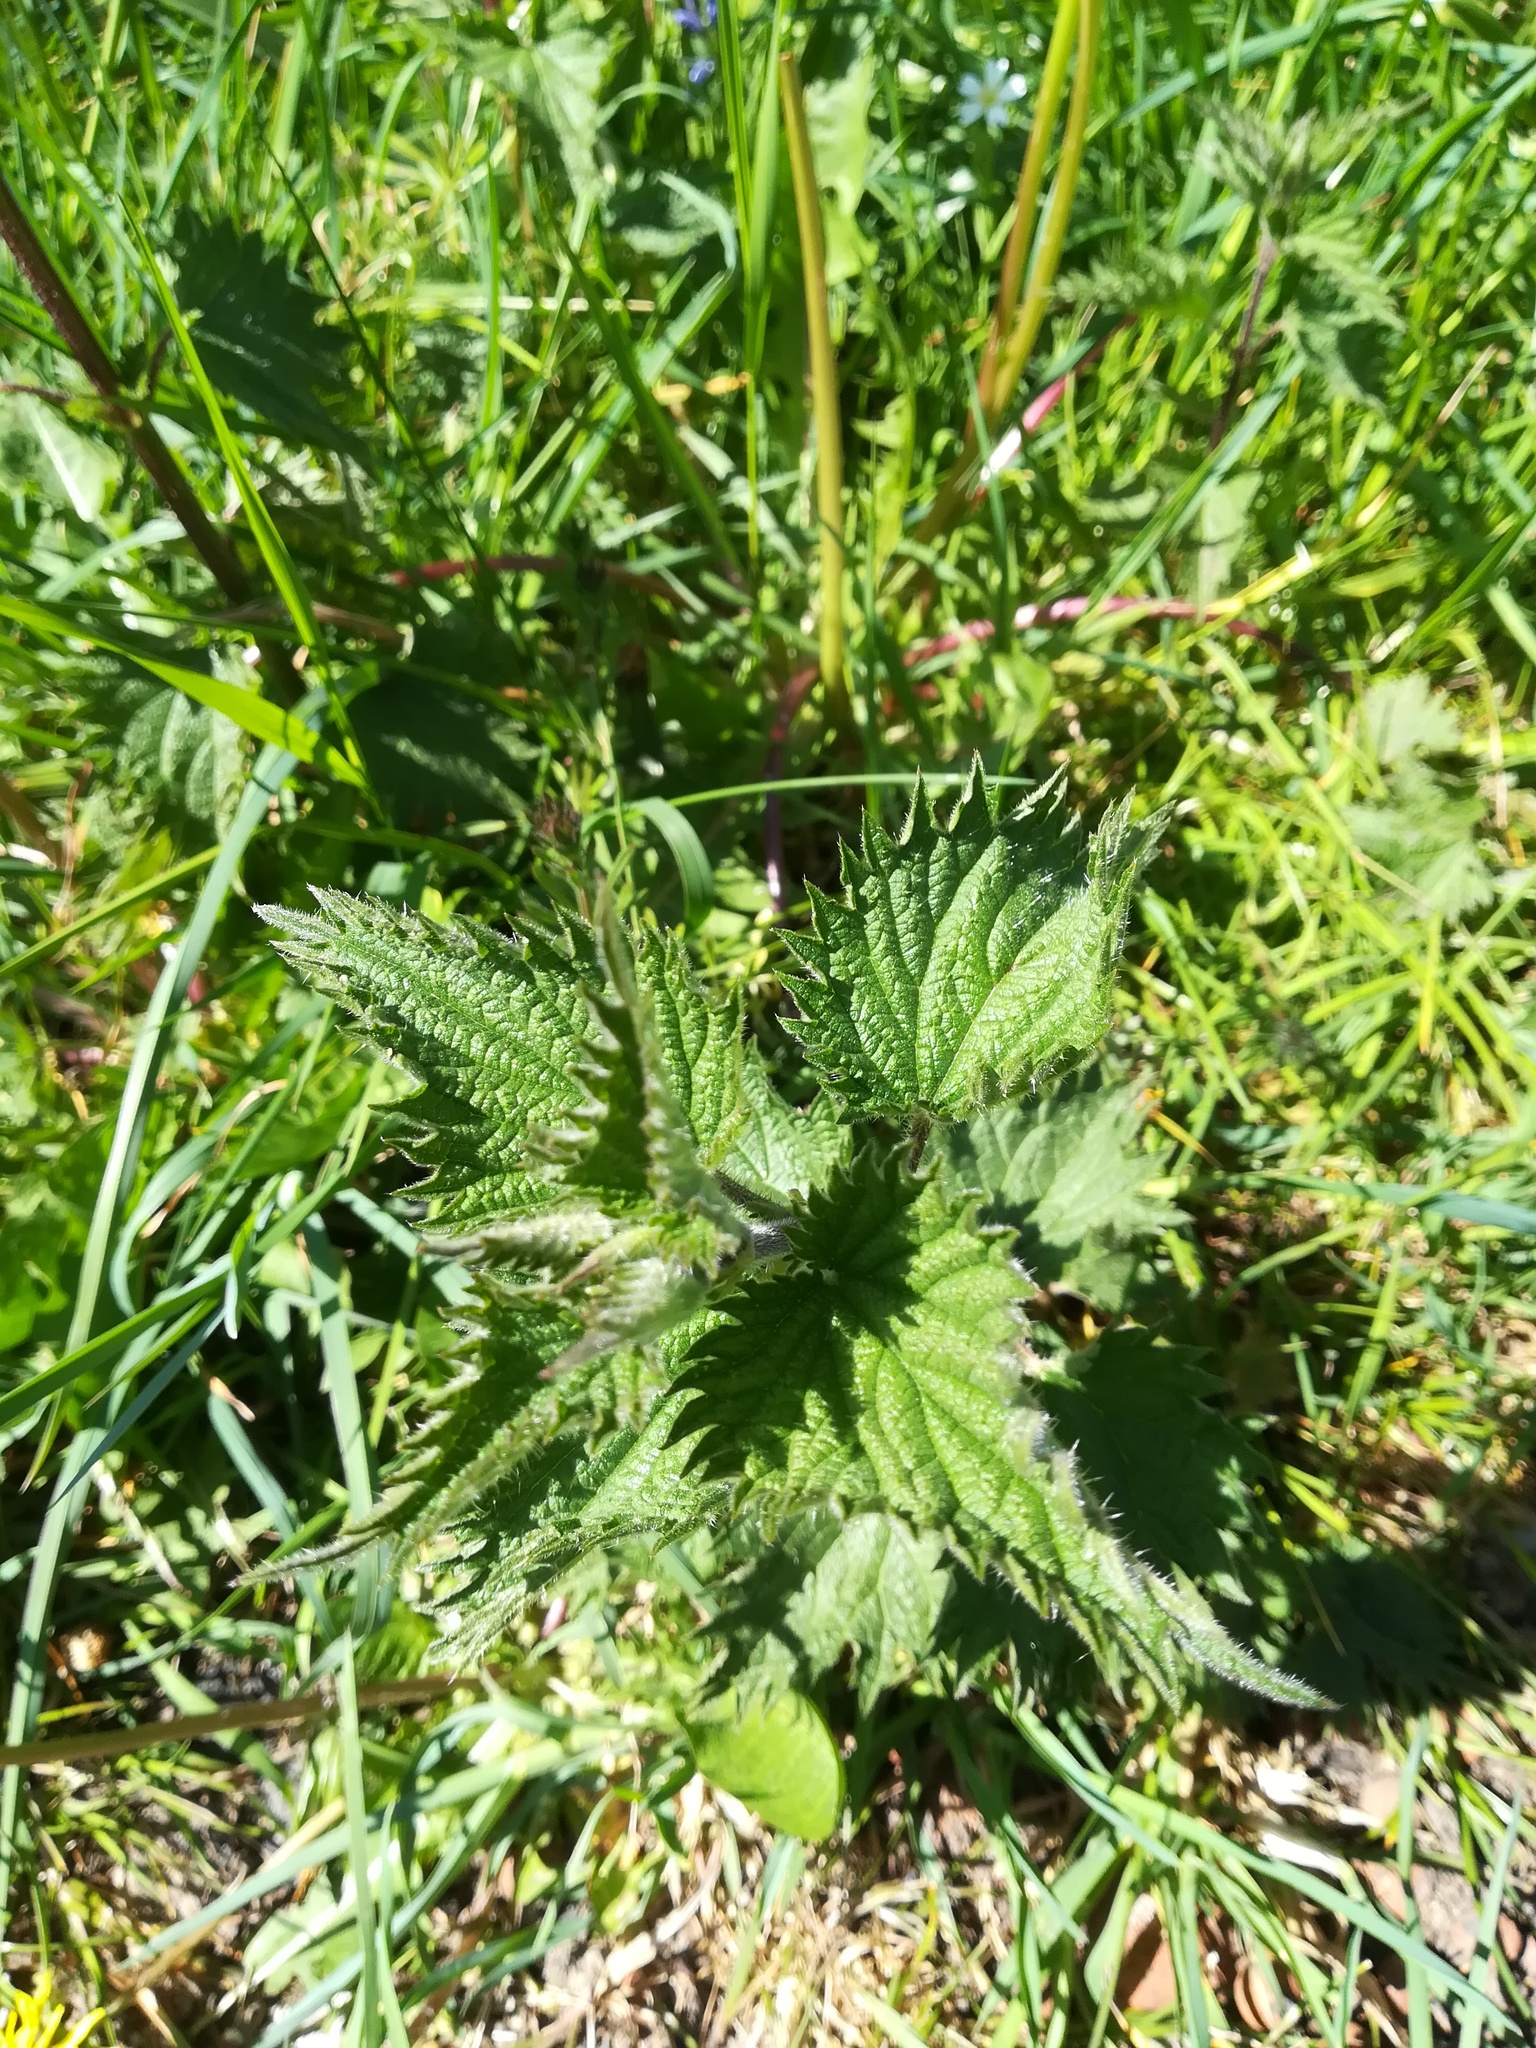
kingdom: Plantae
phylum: Tracheophyta
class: Magnoliopsida
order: Rosales
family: Urticaceae
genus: Urtica
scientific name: Urtica dioica
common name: Common nettle
